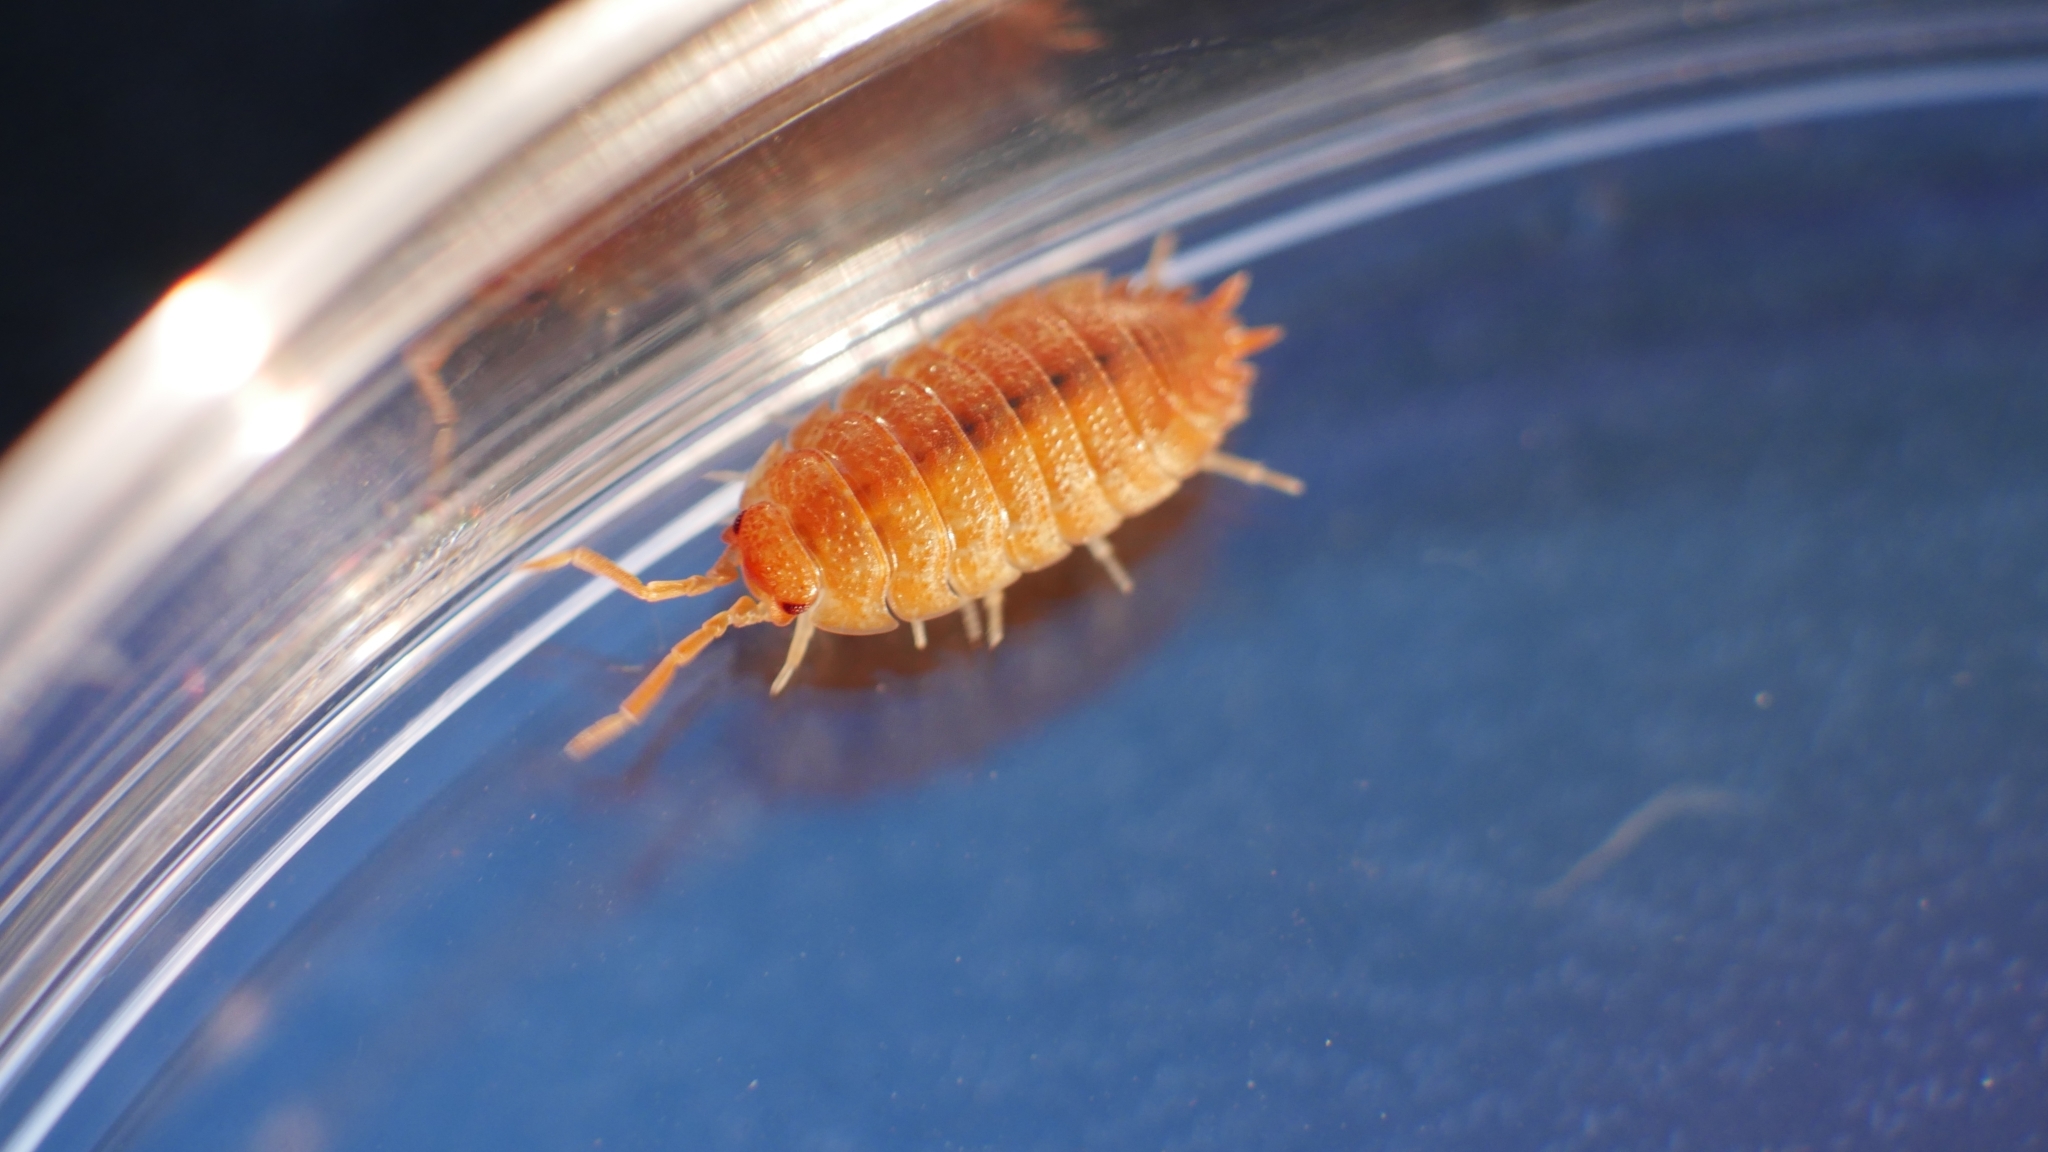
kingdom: Animalia
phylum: Arthropoda
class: Malacostraca
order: Isopoda
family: Porcellionidae
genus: Porcellio
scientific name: Porcellio scaber
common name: Common rough woodlouse
